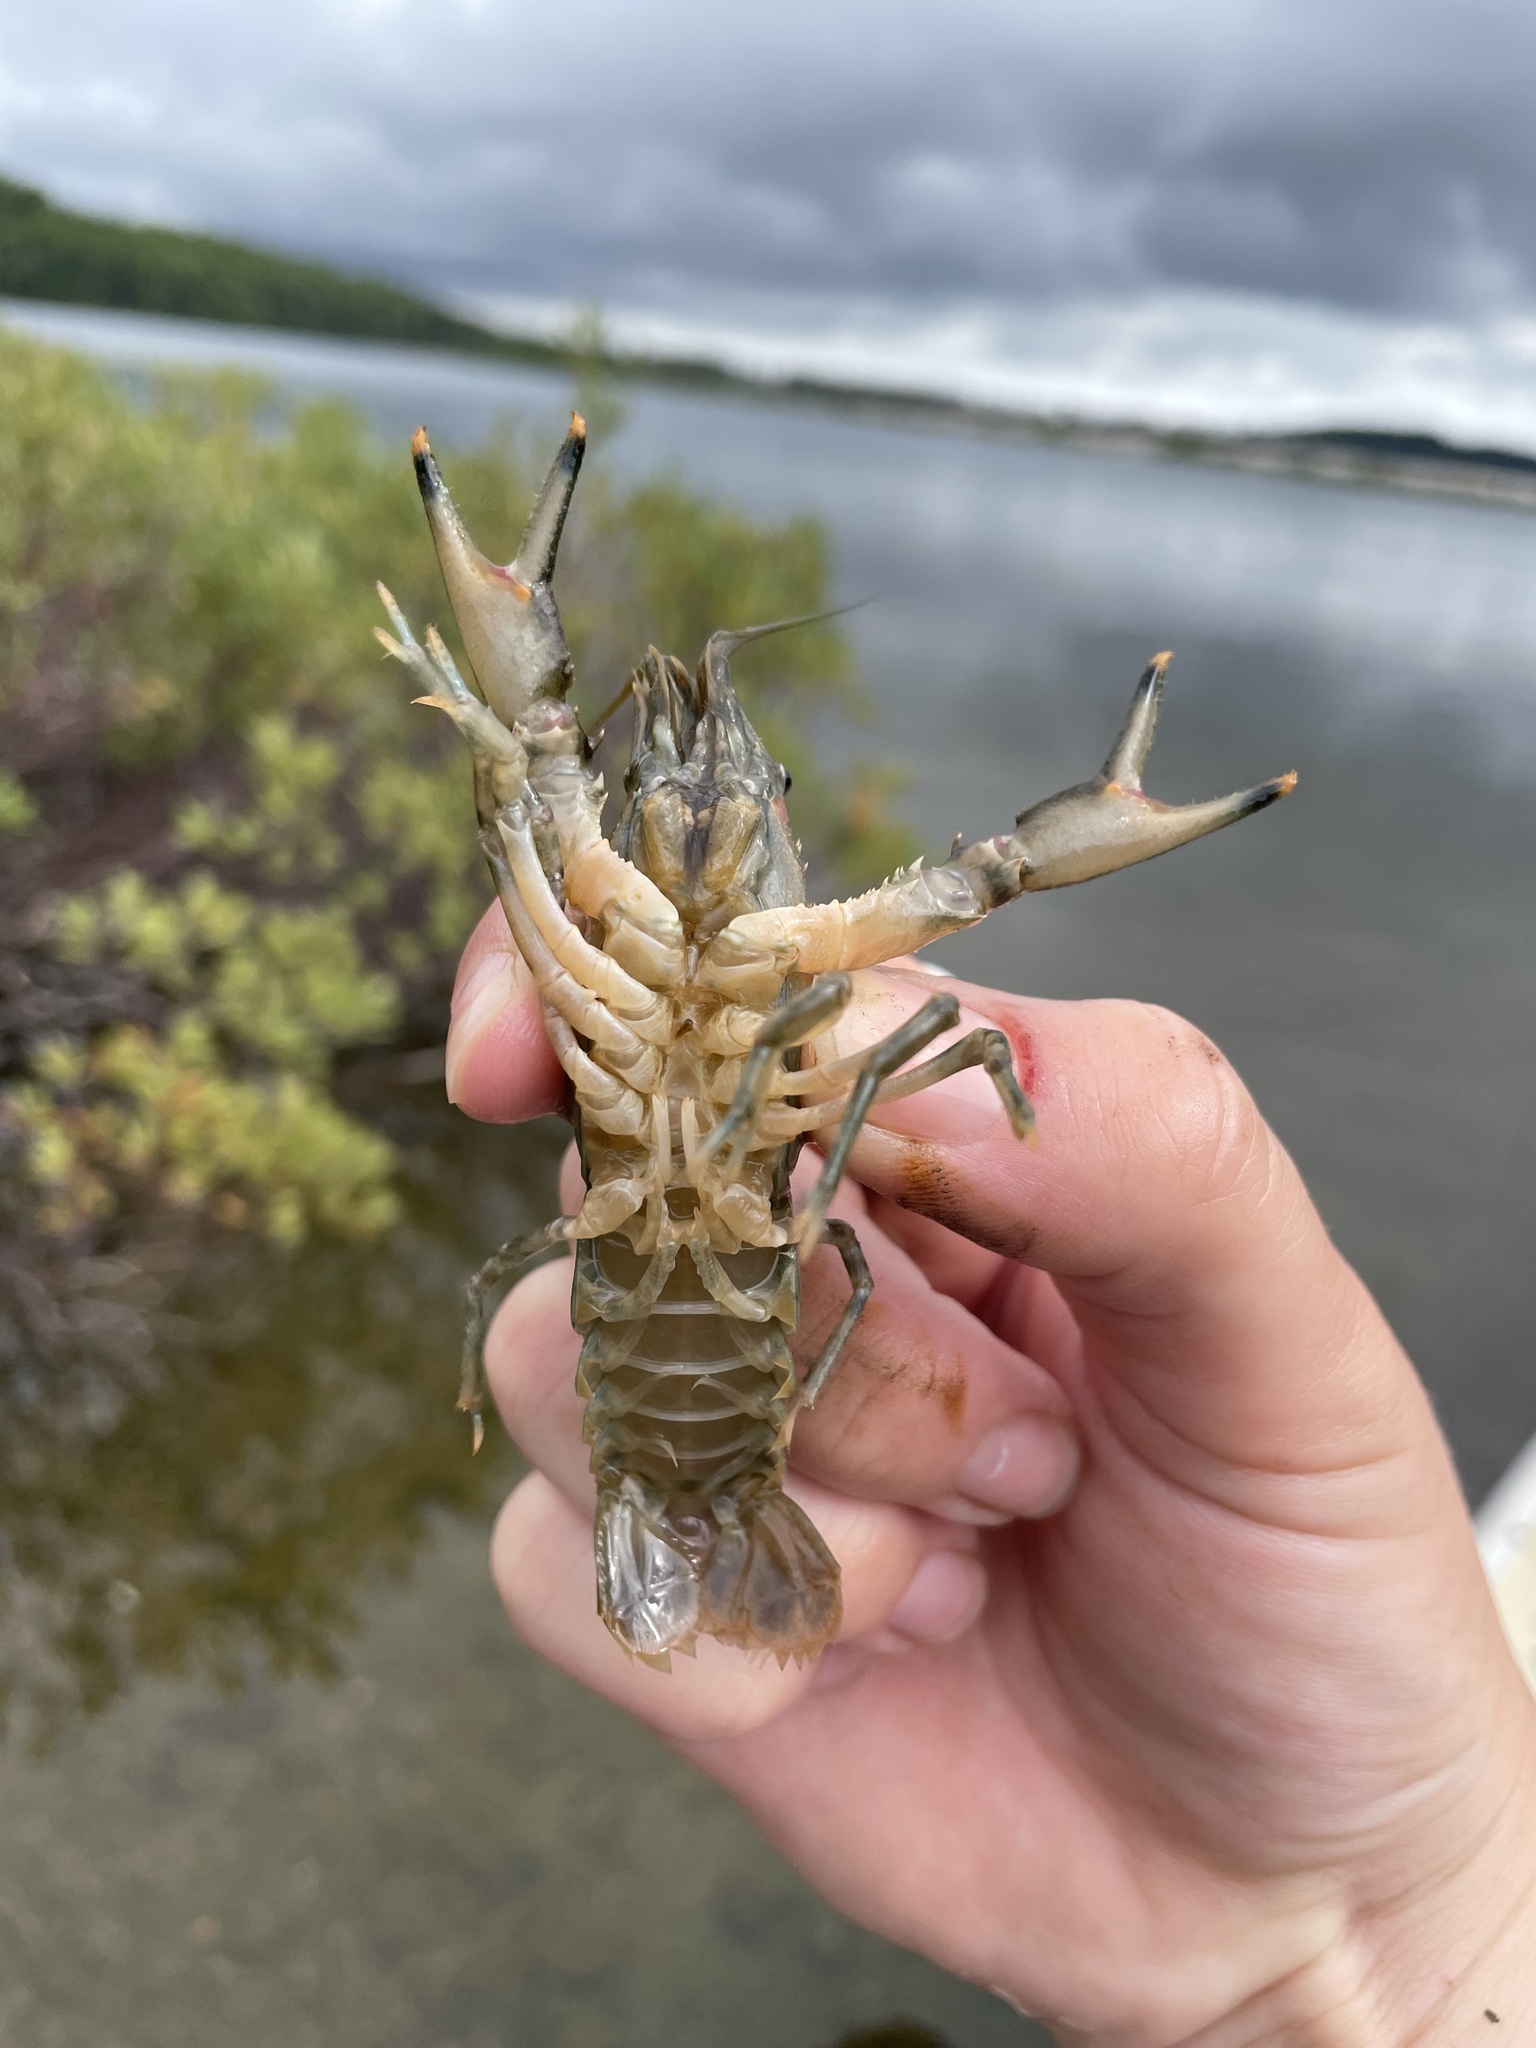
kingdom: Animalia
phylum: Arthropoda
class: Malacostraca
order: Decapoda
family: Cambaridae
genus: Faxonius
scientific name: Faxonius limosus
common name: American crayfish
